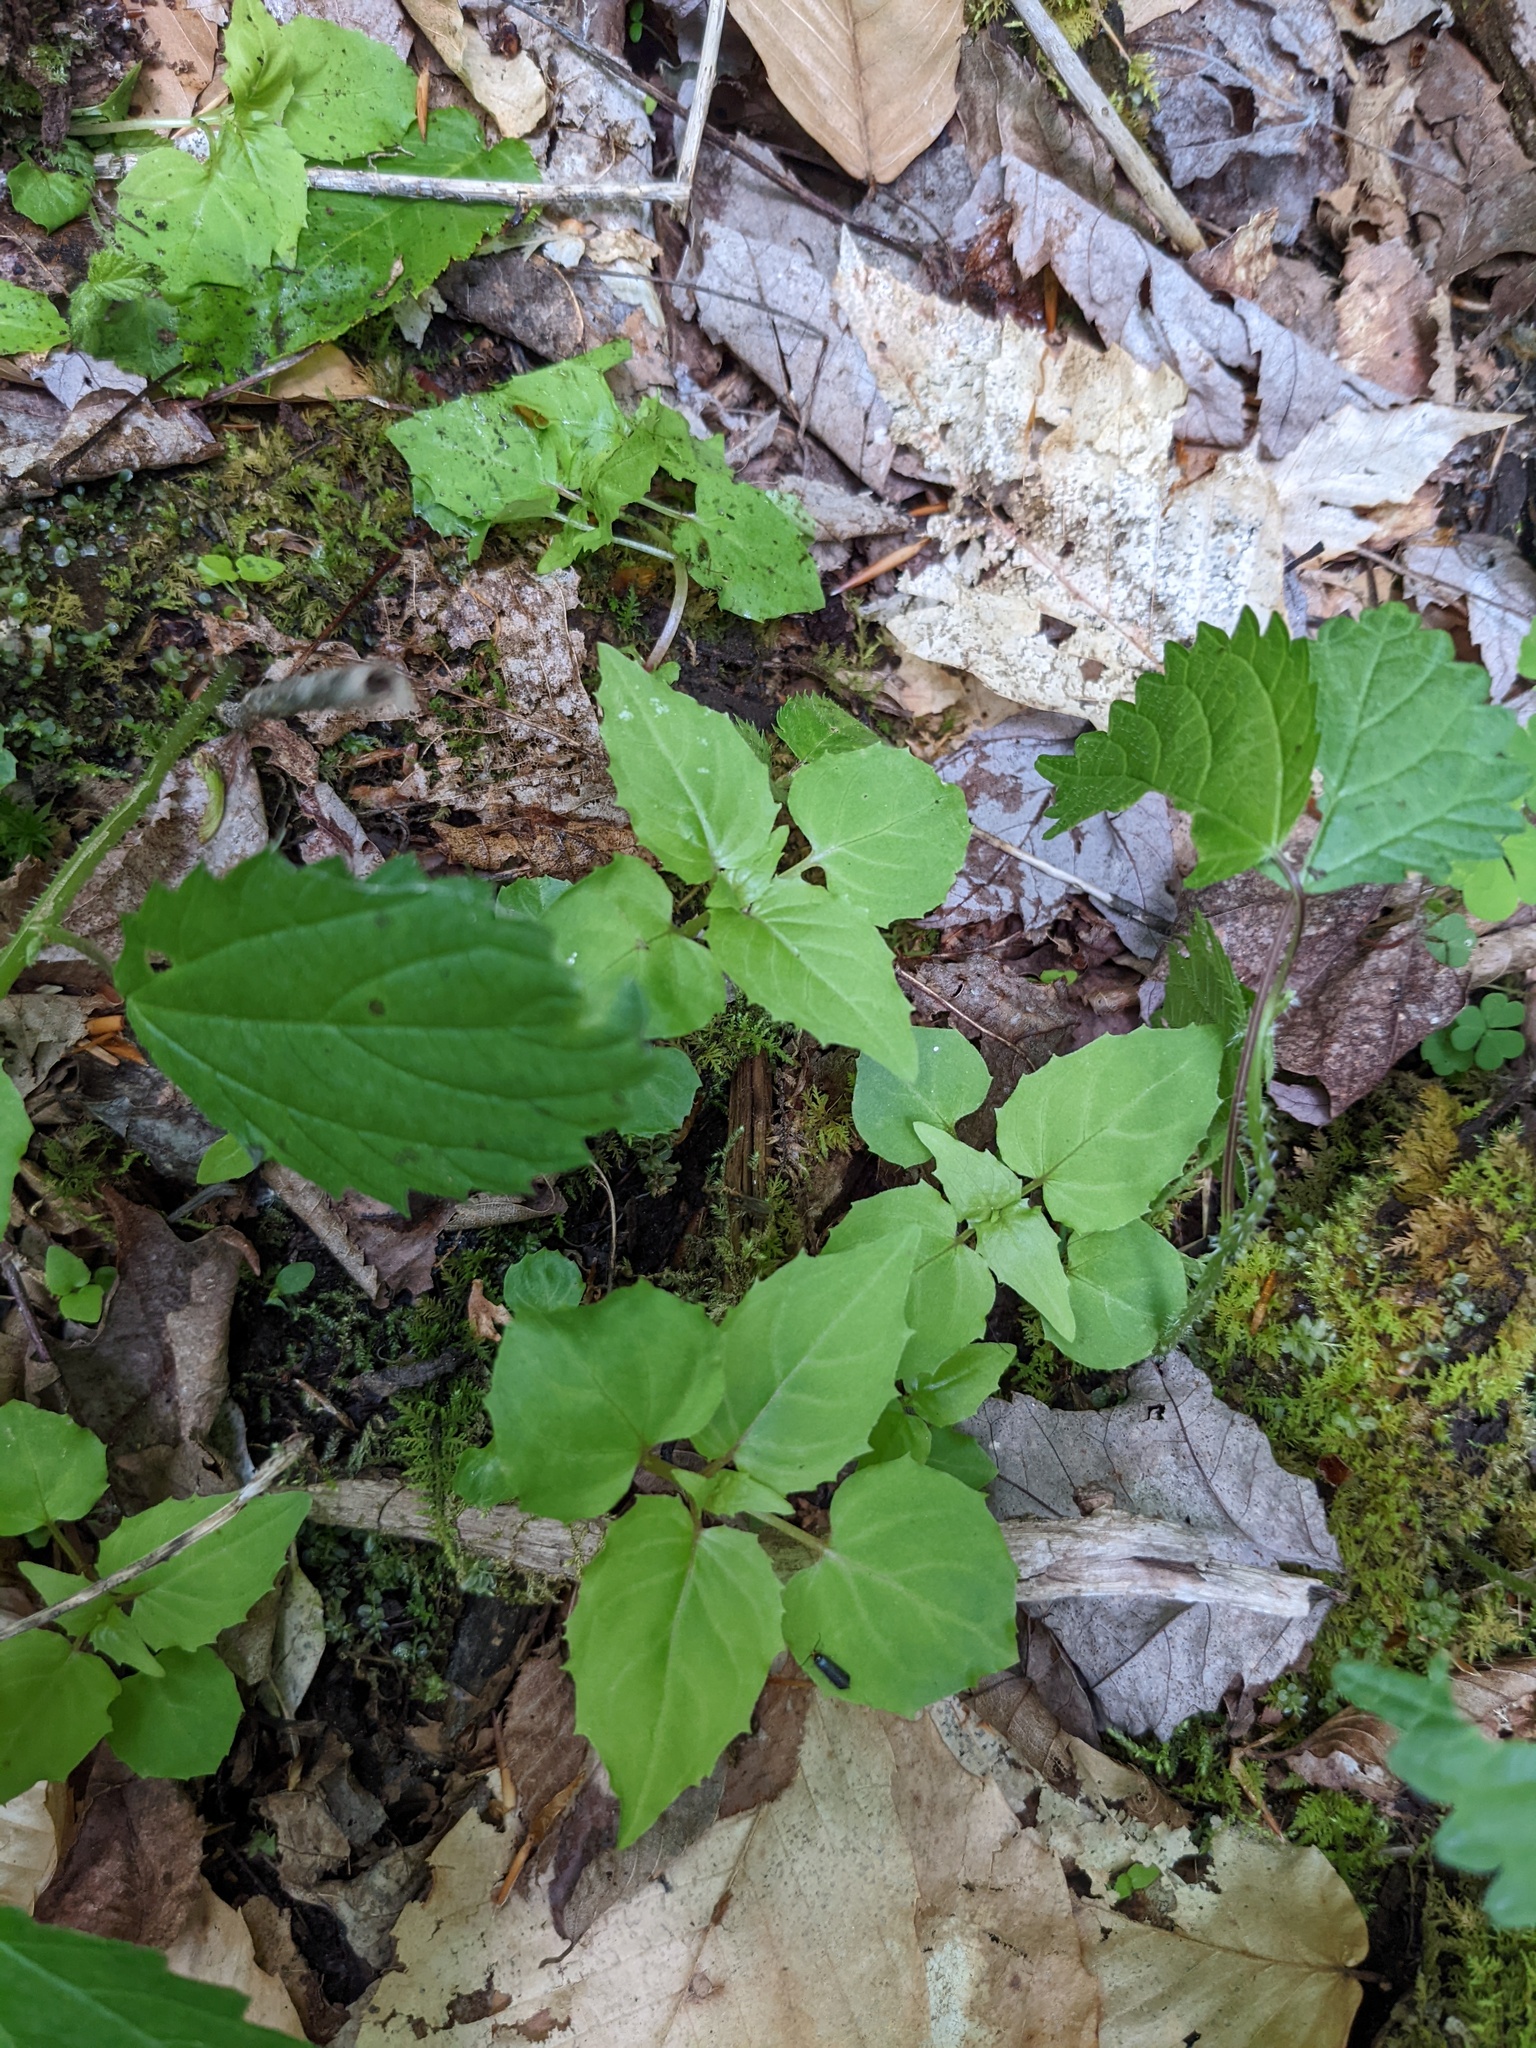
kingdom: Plantae
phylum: Tracheophyta
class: Magnoliopsida
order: Myrtales
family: Onagraceae
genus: Circaea
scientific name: Circaea alpina
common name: Alpine enchanter's-nightshade
